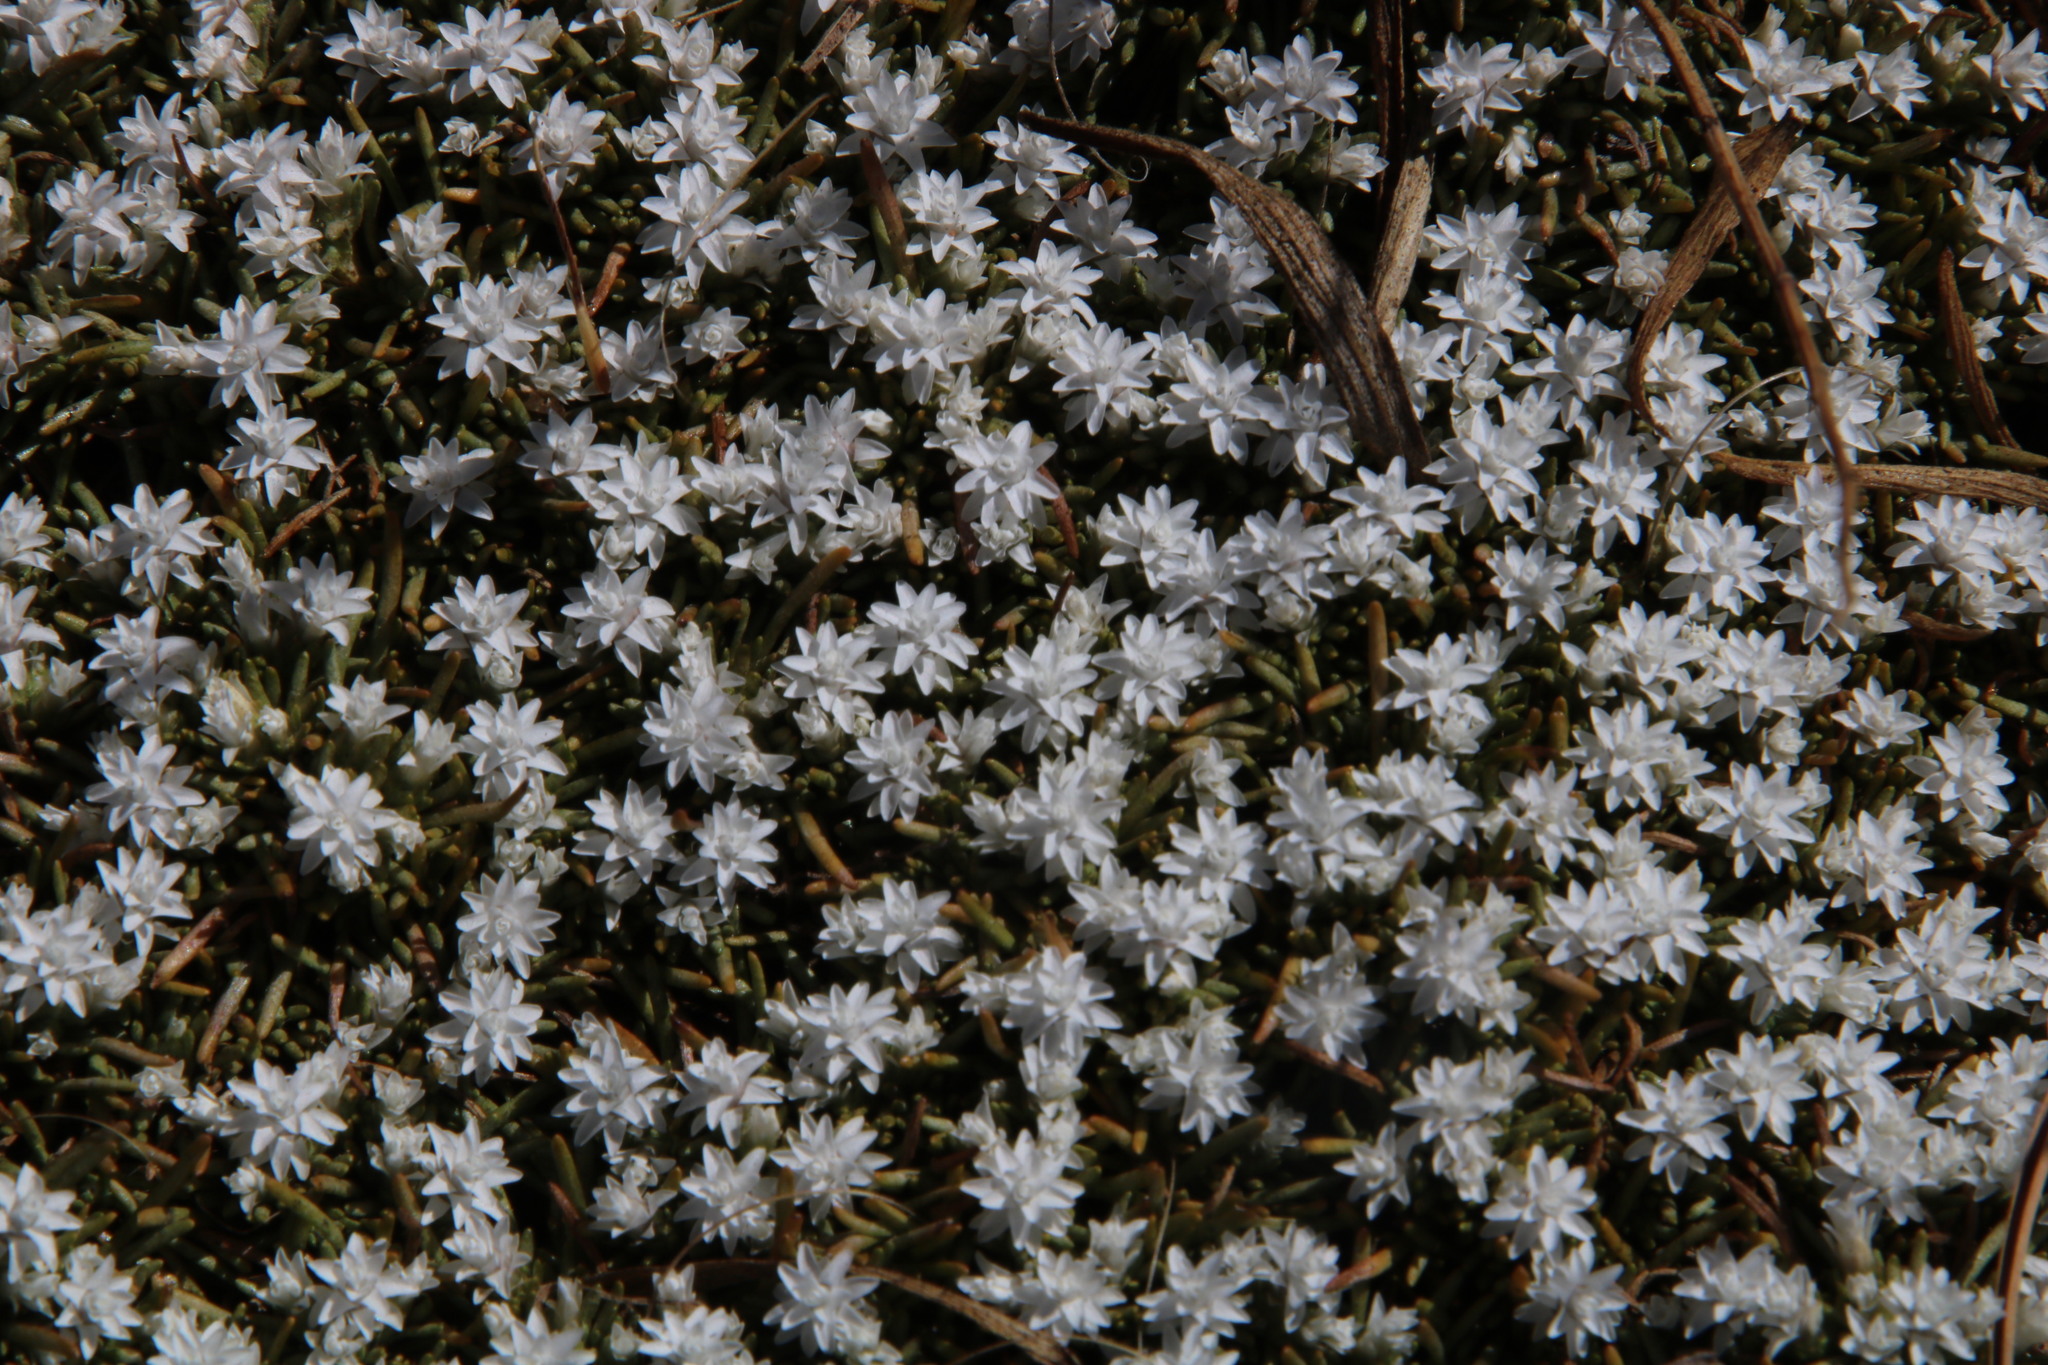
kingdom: Plantae
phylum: Tracheophyta
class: Magnoliopsida
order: Asterales
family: Asteraceae
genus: Helichrysum
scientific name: Helichrysum caespititium
